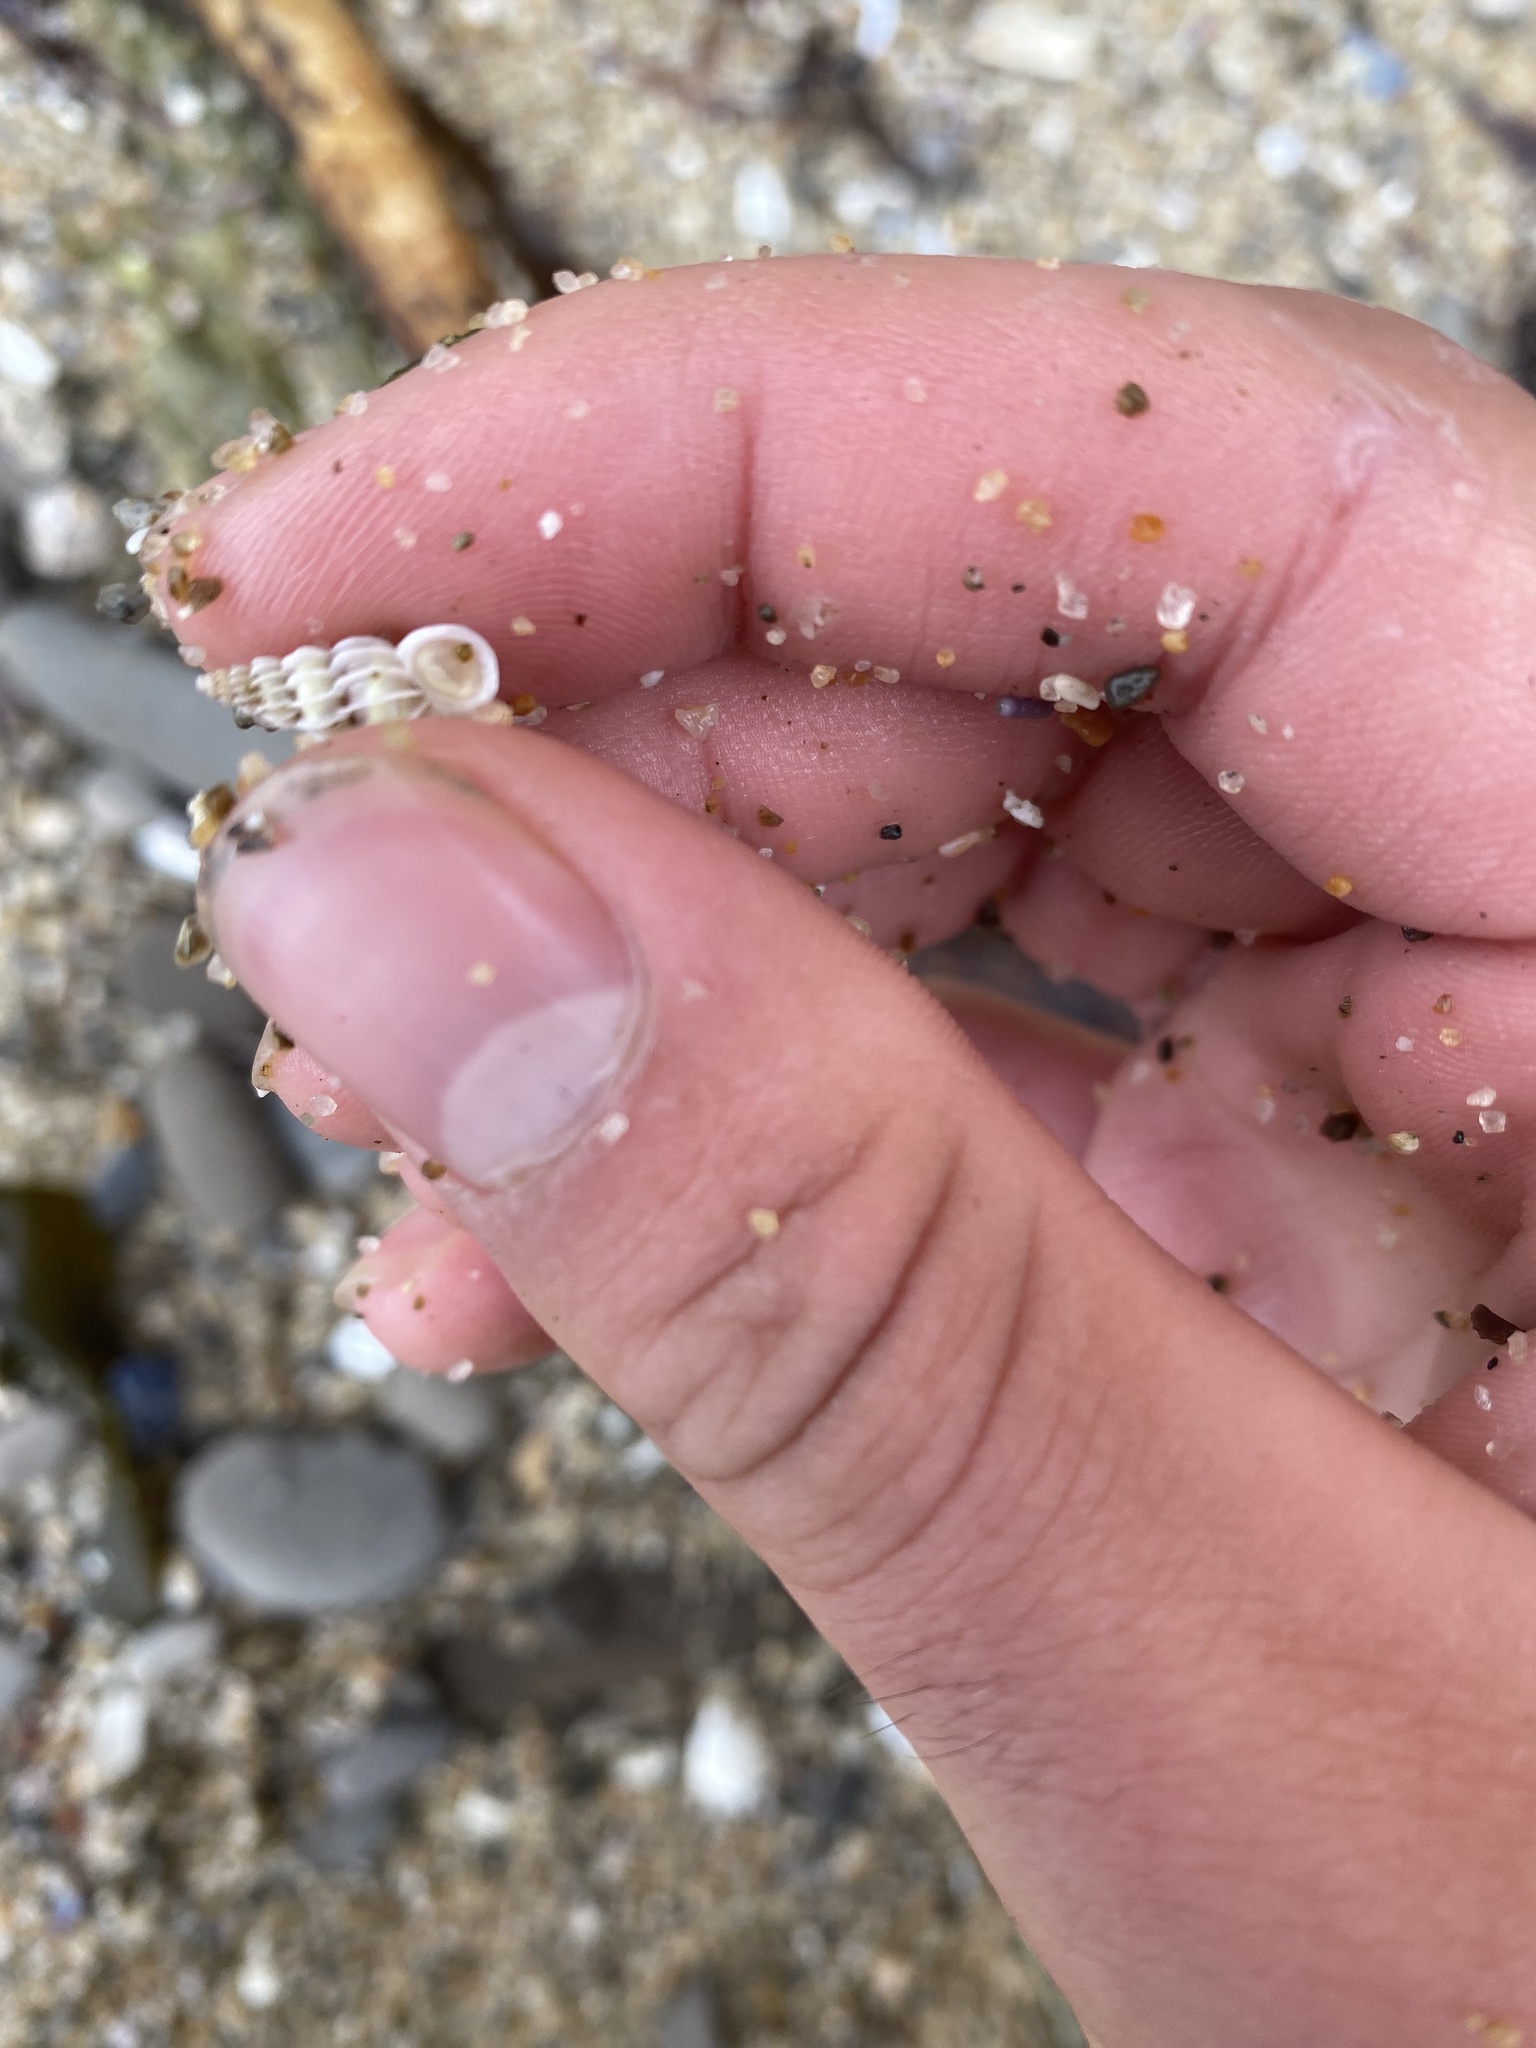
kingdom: Animalia
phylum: Mollusca
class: Gastropoda
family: Epitoniidae
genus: Epitonium
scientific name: Epitonium tinctum
